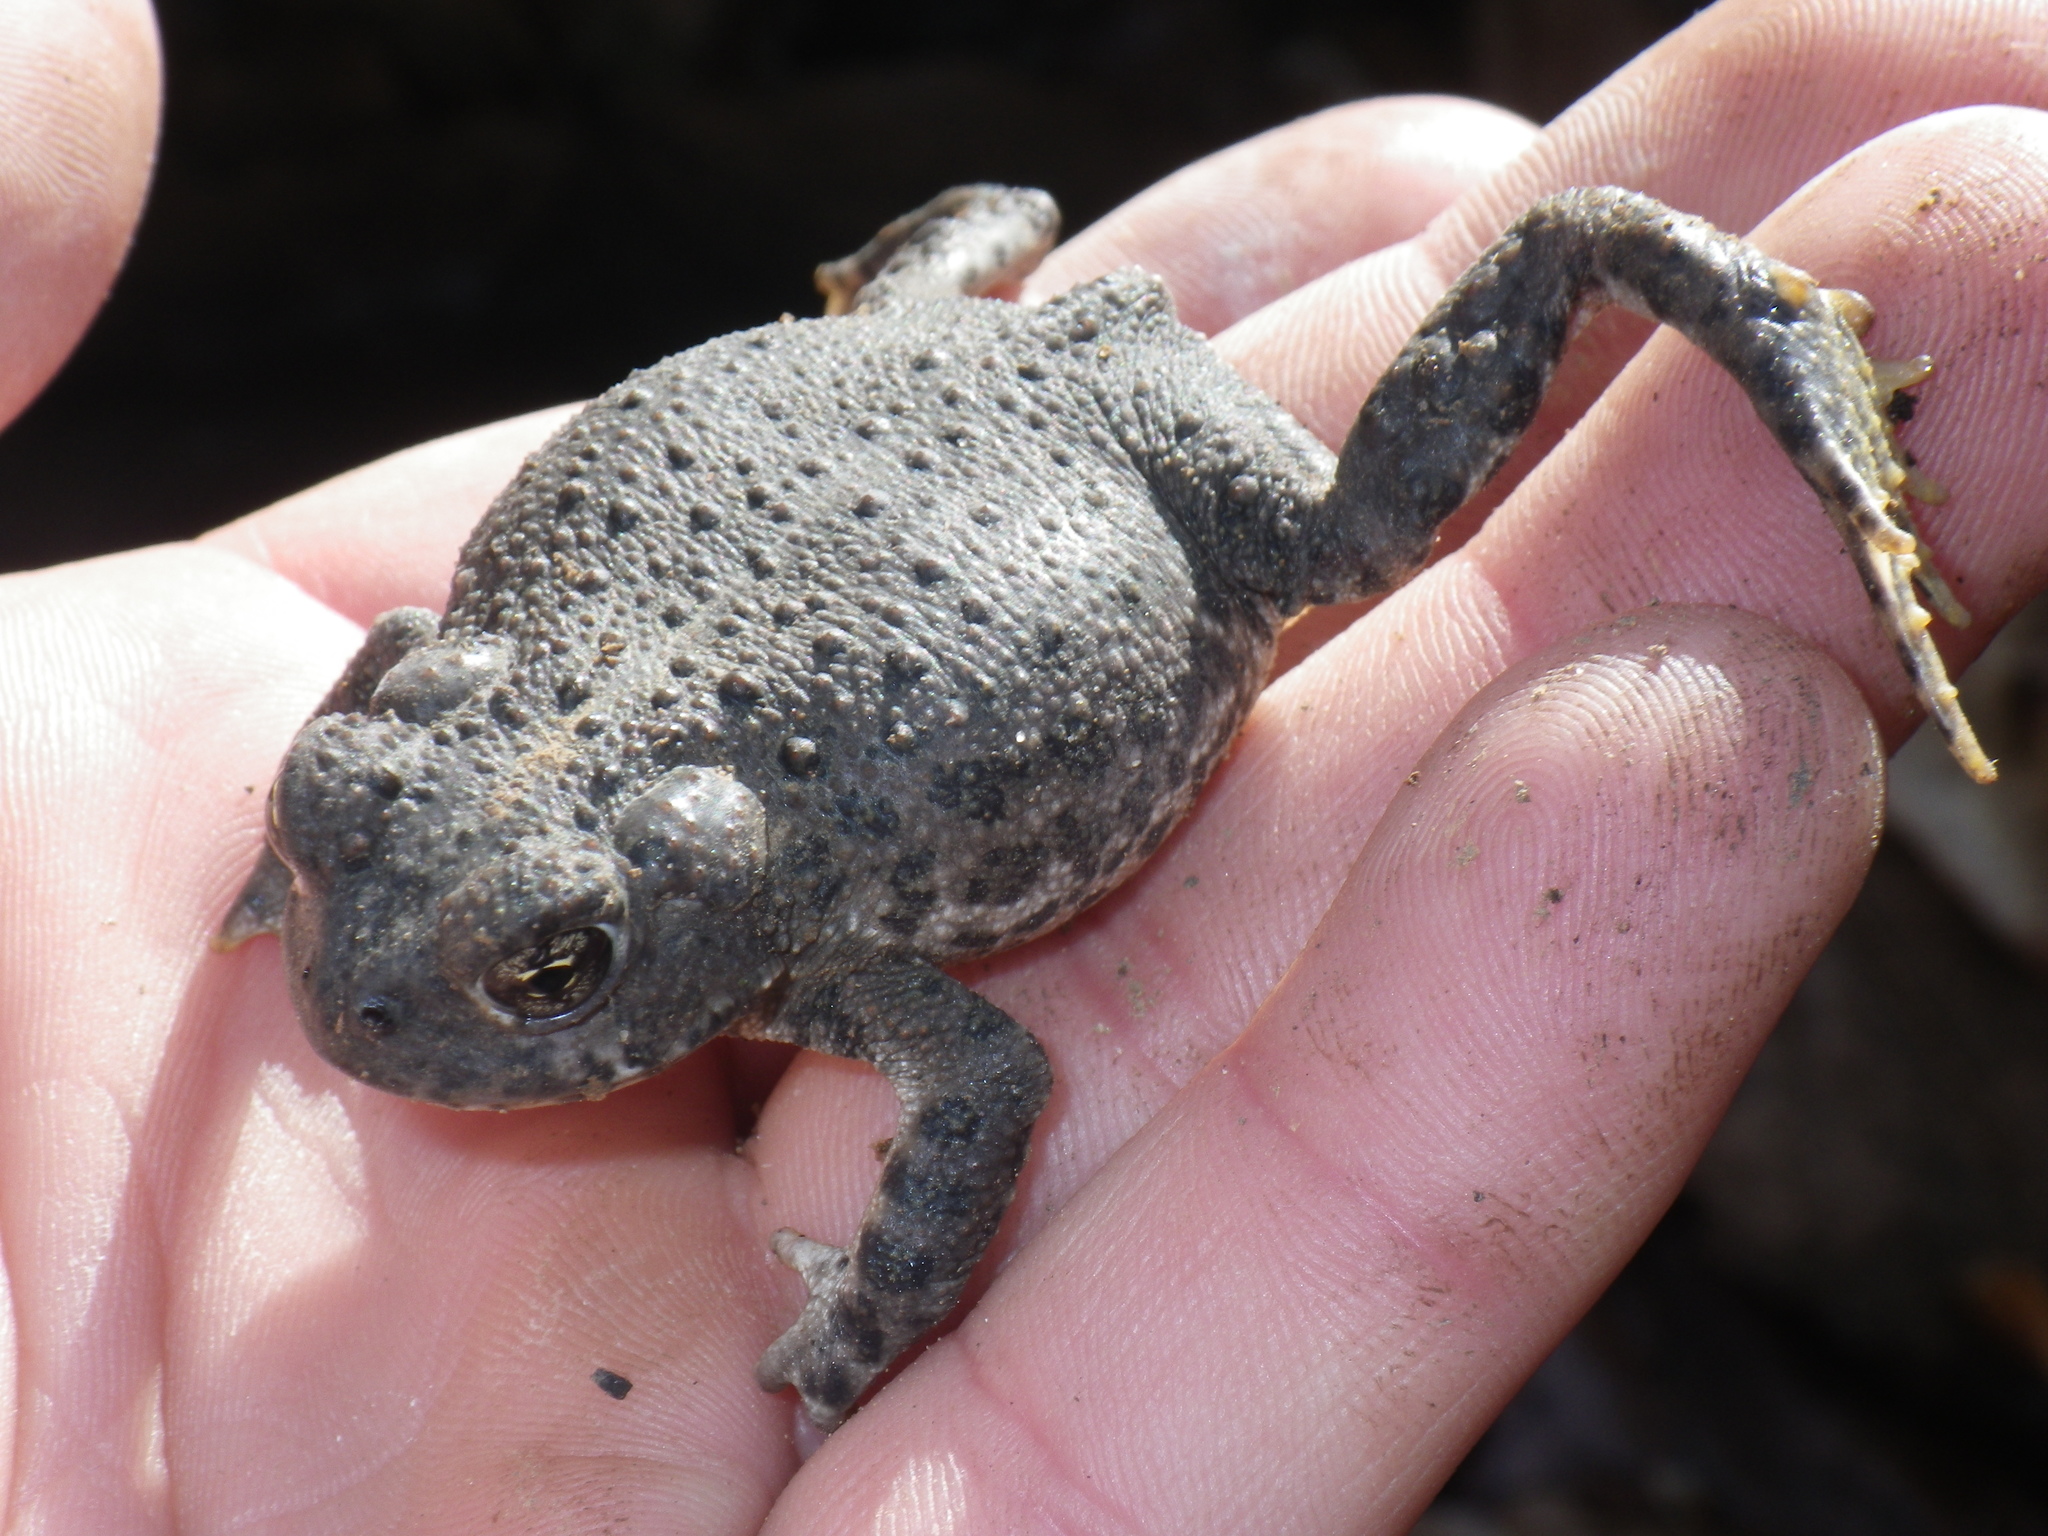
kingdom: Animalia
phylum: Chordata
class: Amphibia
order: Anura
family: Bufonidae
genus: Anaxyrus
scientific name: Anaxyrus boreas
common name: Western toad
